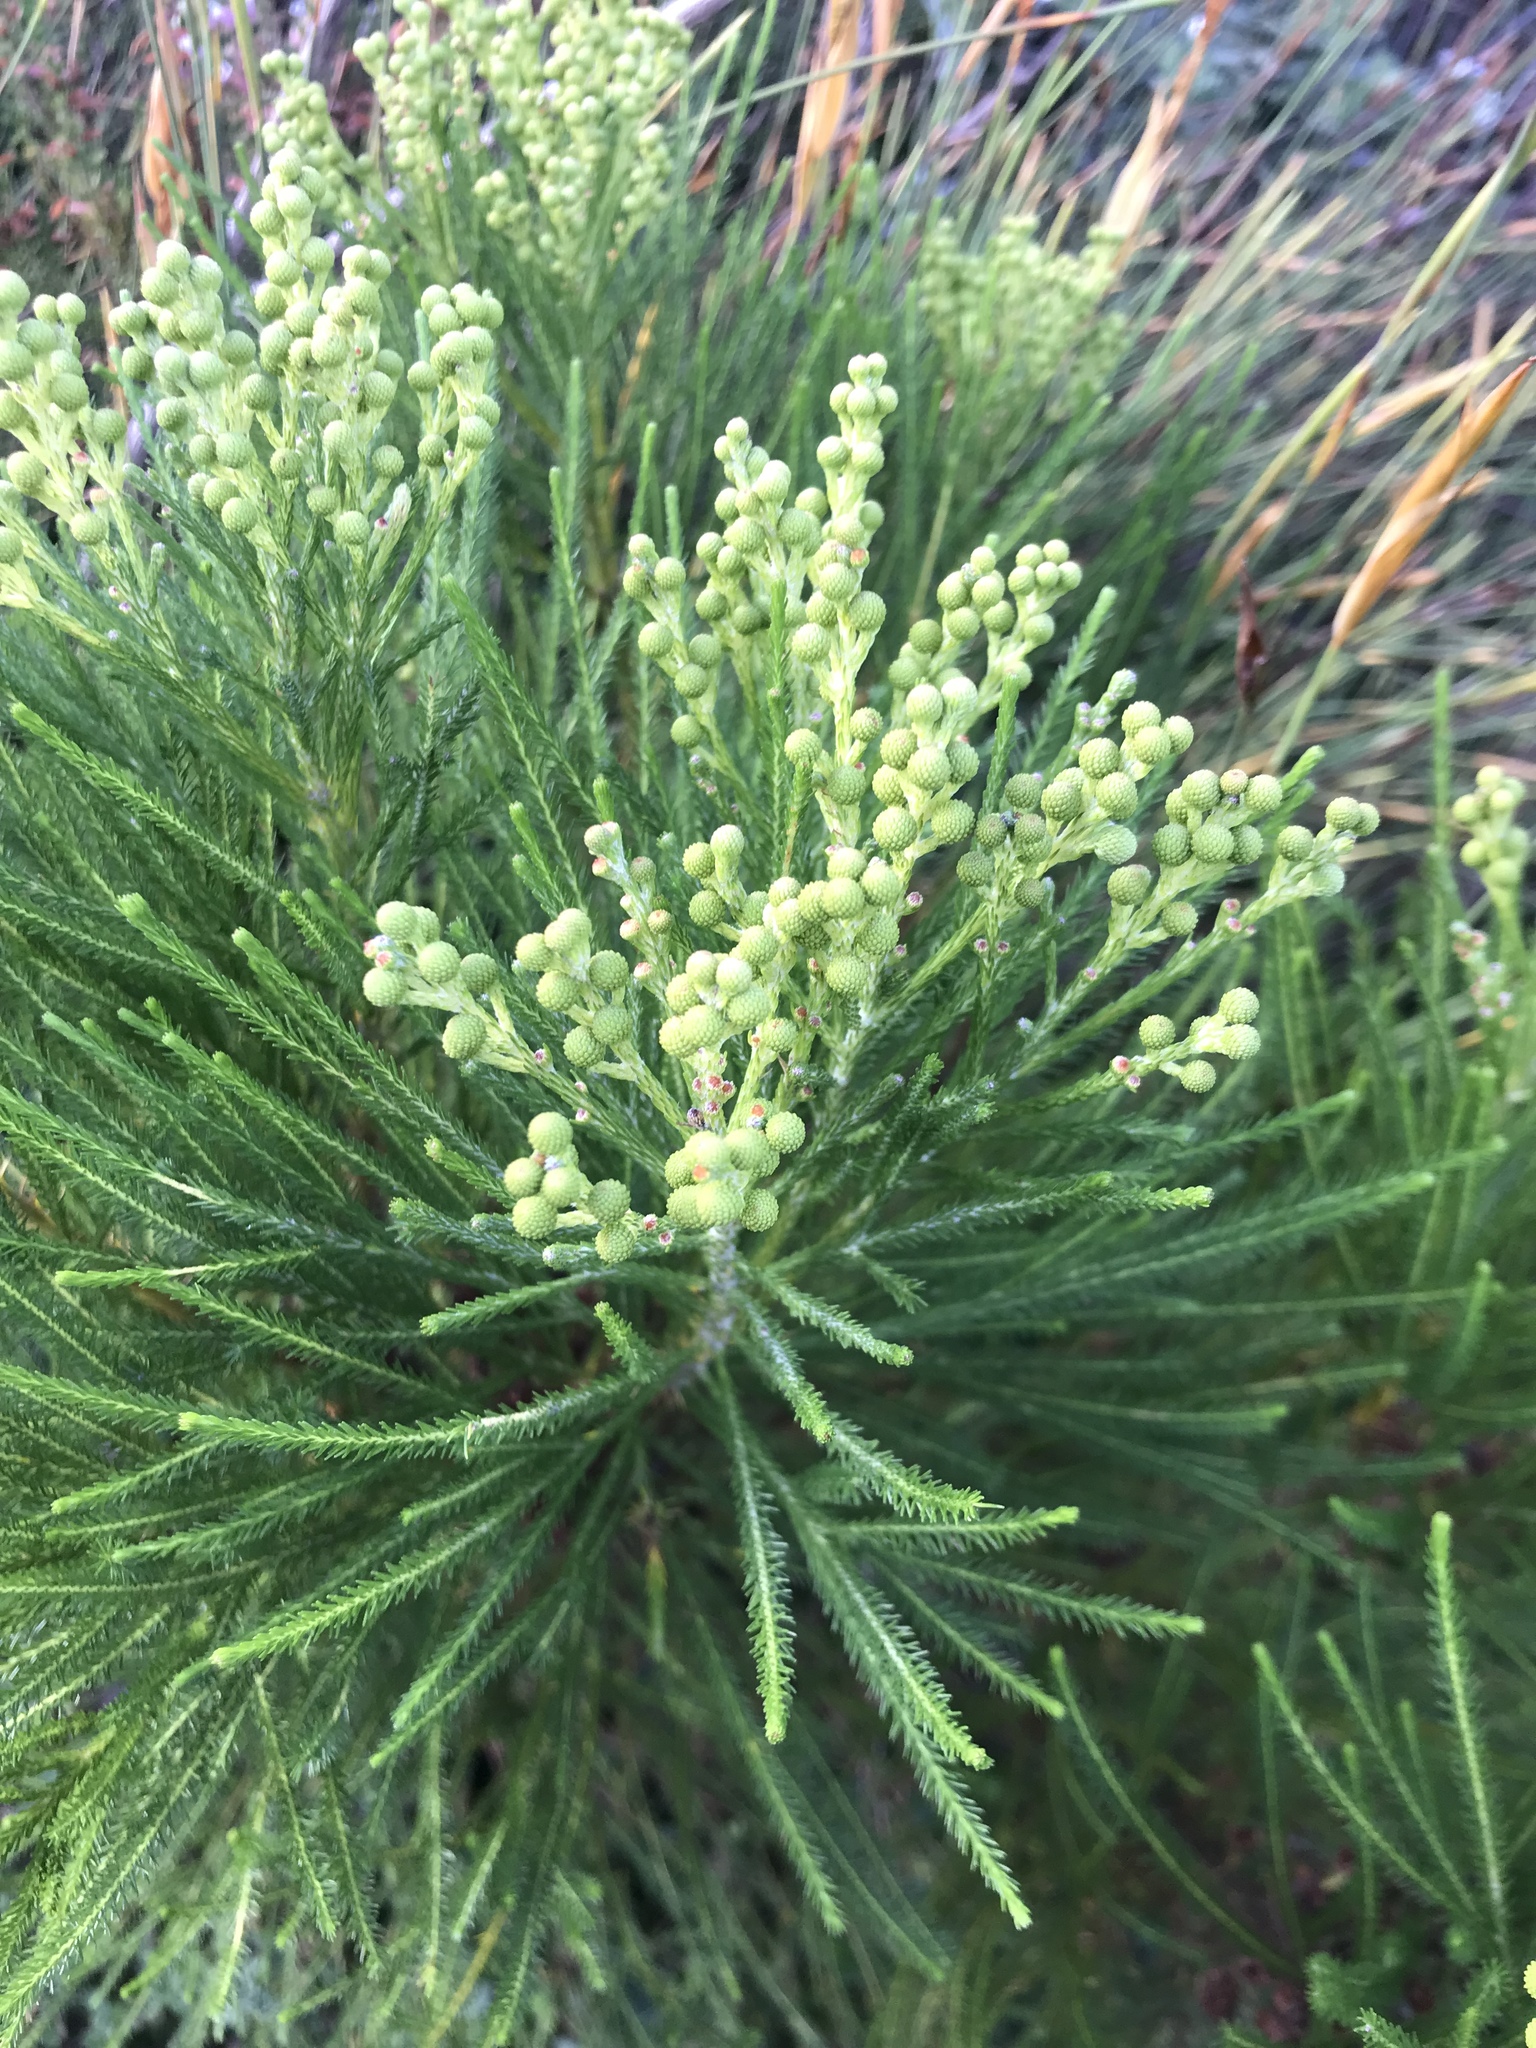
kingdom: Plantae
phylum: Tracheophyta
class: Magnoliopsida
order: Bruniales
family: Bruniaceae
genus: Berzelia
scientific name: Berzelia lanuginosa
